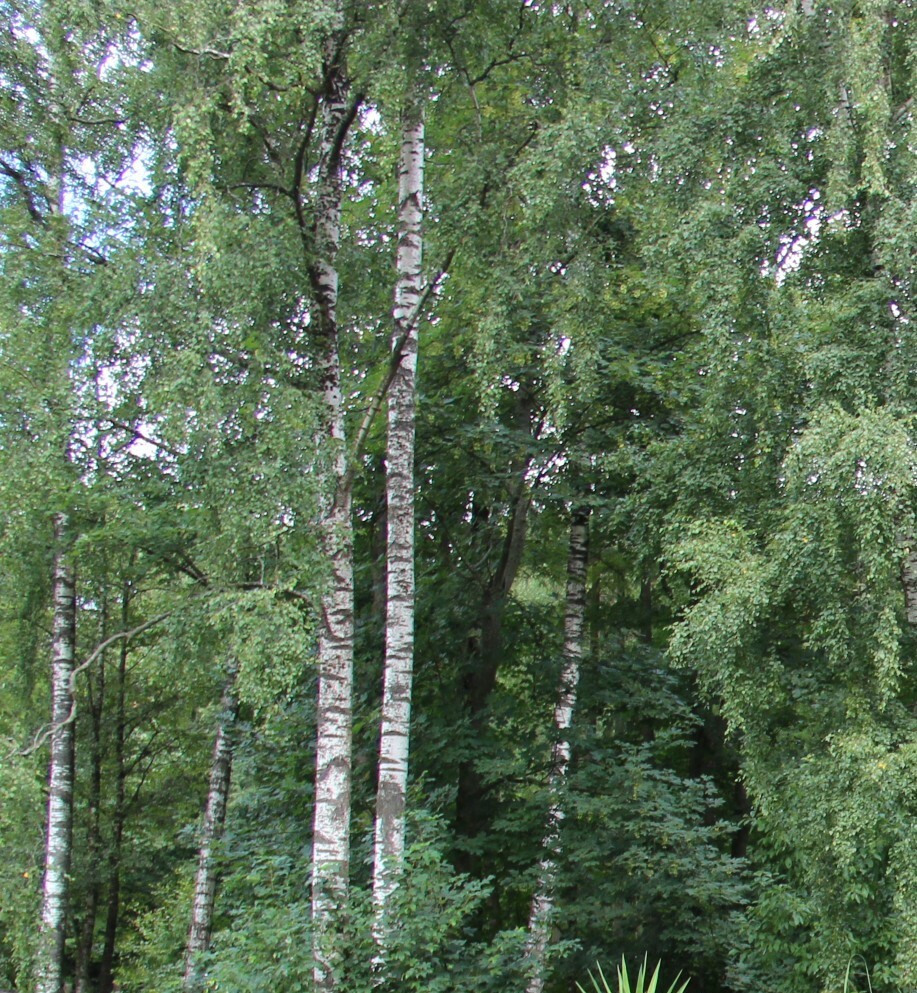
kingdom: Plantae
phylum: Tracheophyta
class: Magnoliopsida
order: Fagales
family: Betulaceae
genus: Betula
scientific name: Betula pendula
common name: Silver birch
